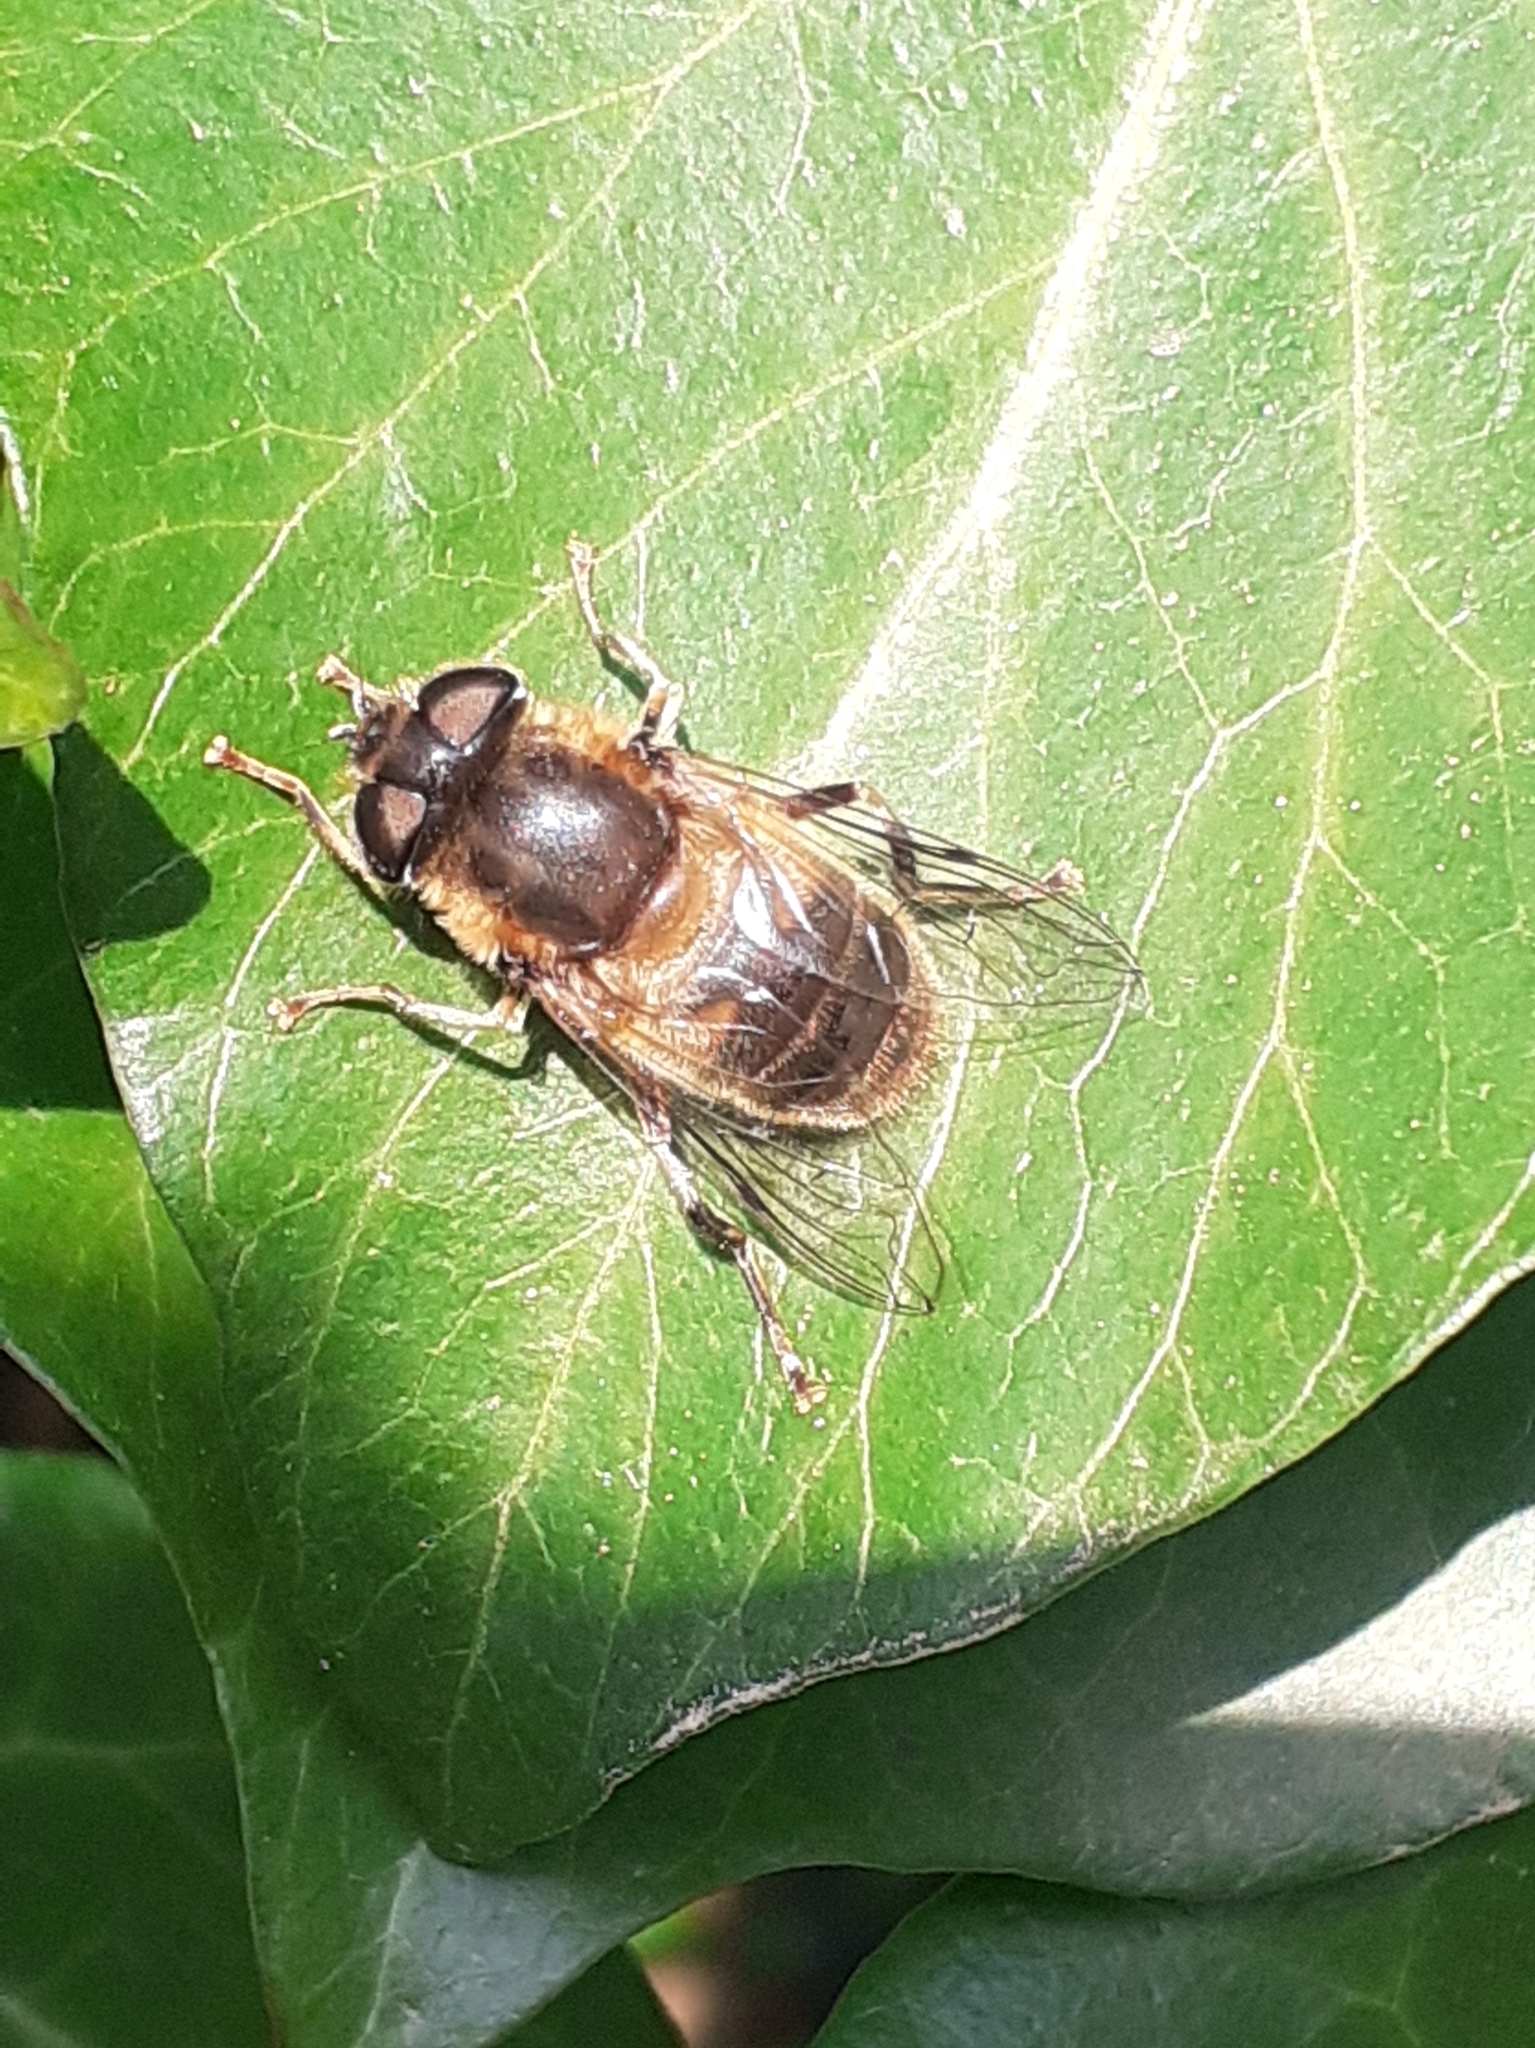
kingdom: Animalia
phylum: Arthropoda
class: Insecta
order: Diptera
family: Syrphidae
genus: Eristalis
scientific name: Eristalis pertinax
